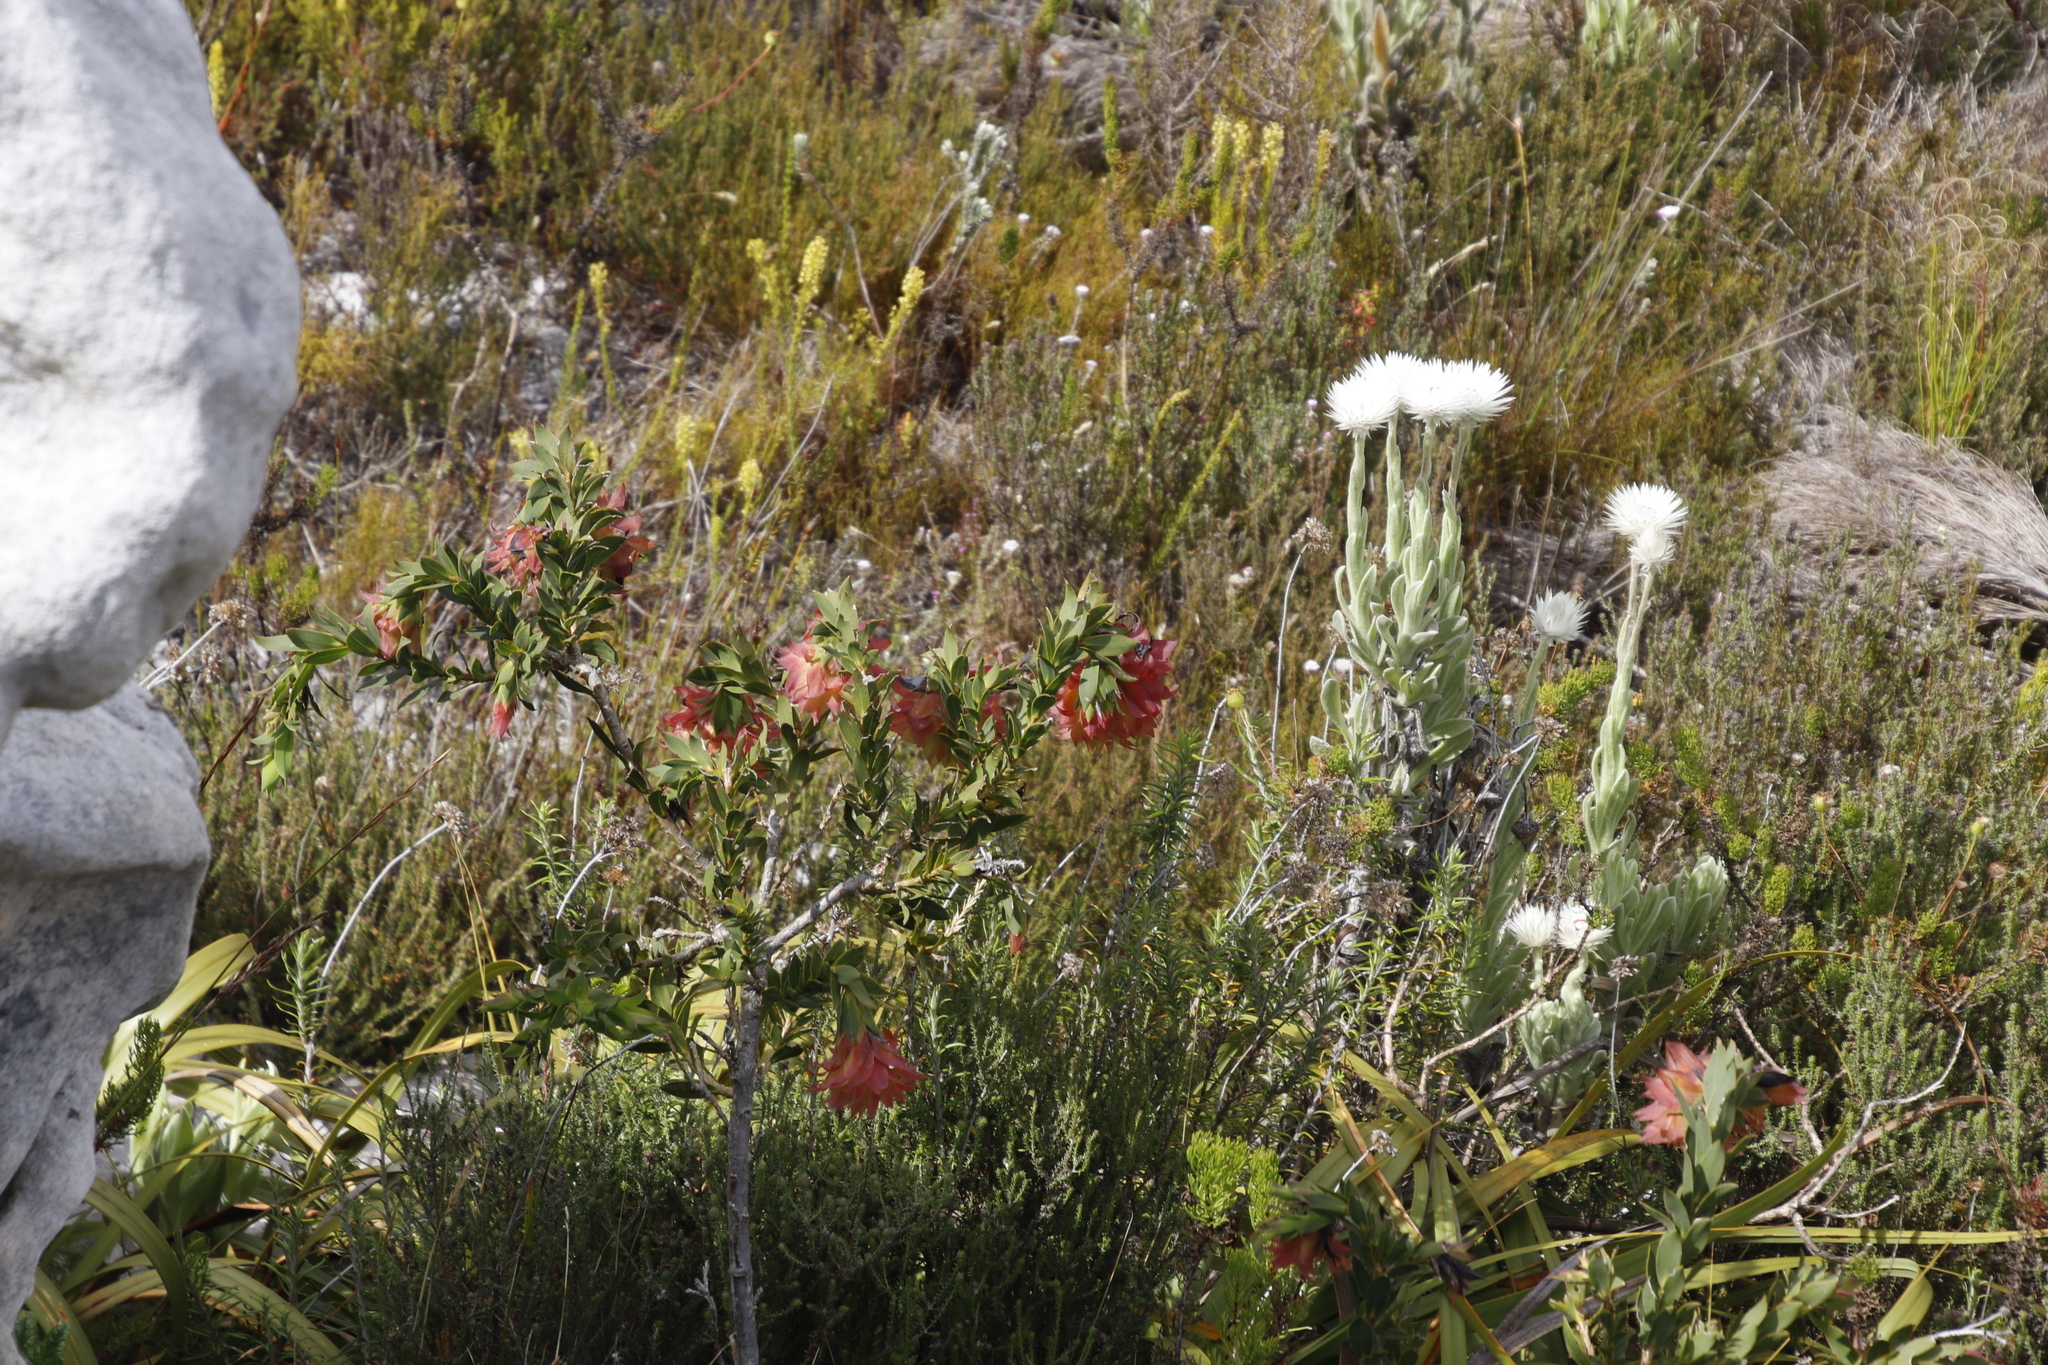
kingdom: Plantae
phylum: Tracheophyta
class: Magnoliopsida
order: Fabales
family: Fabaceae
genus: Liparia
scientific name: Liparia splendens
